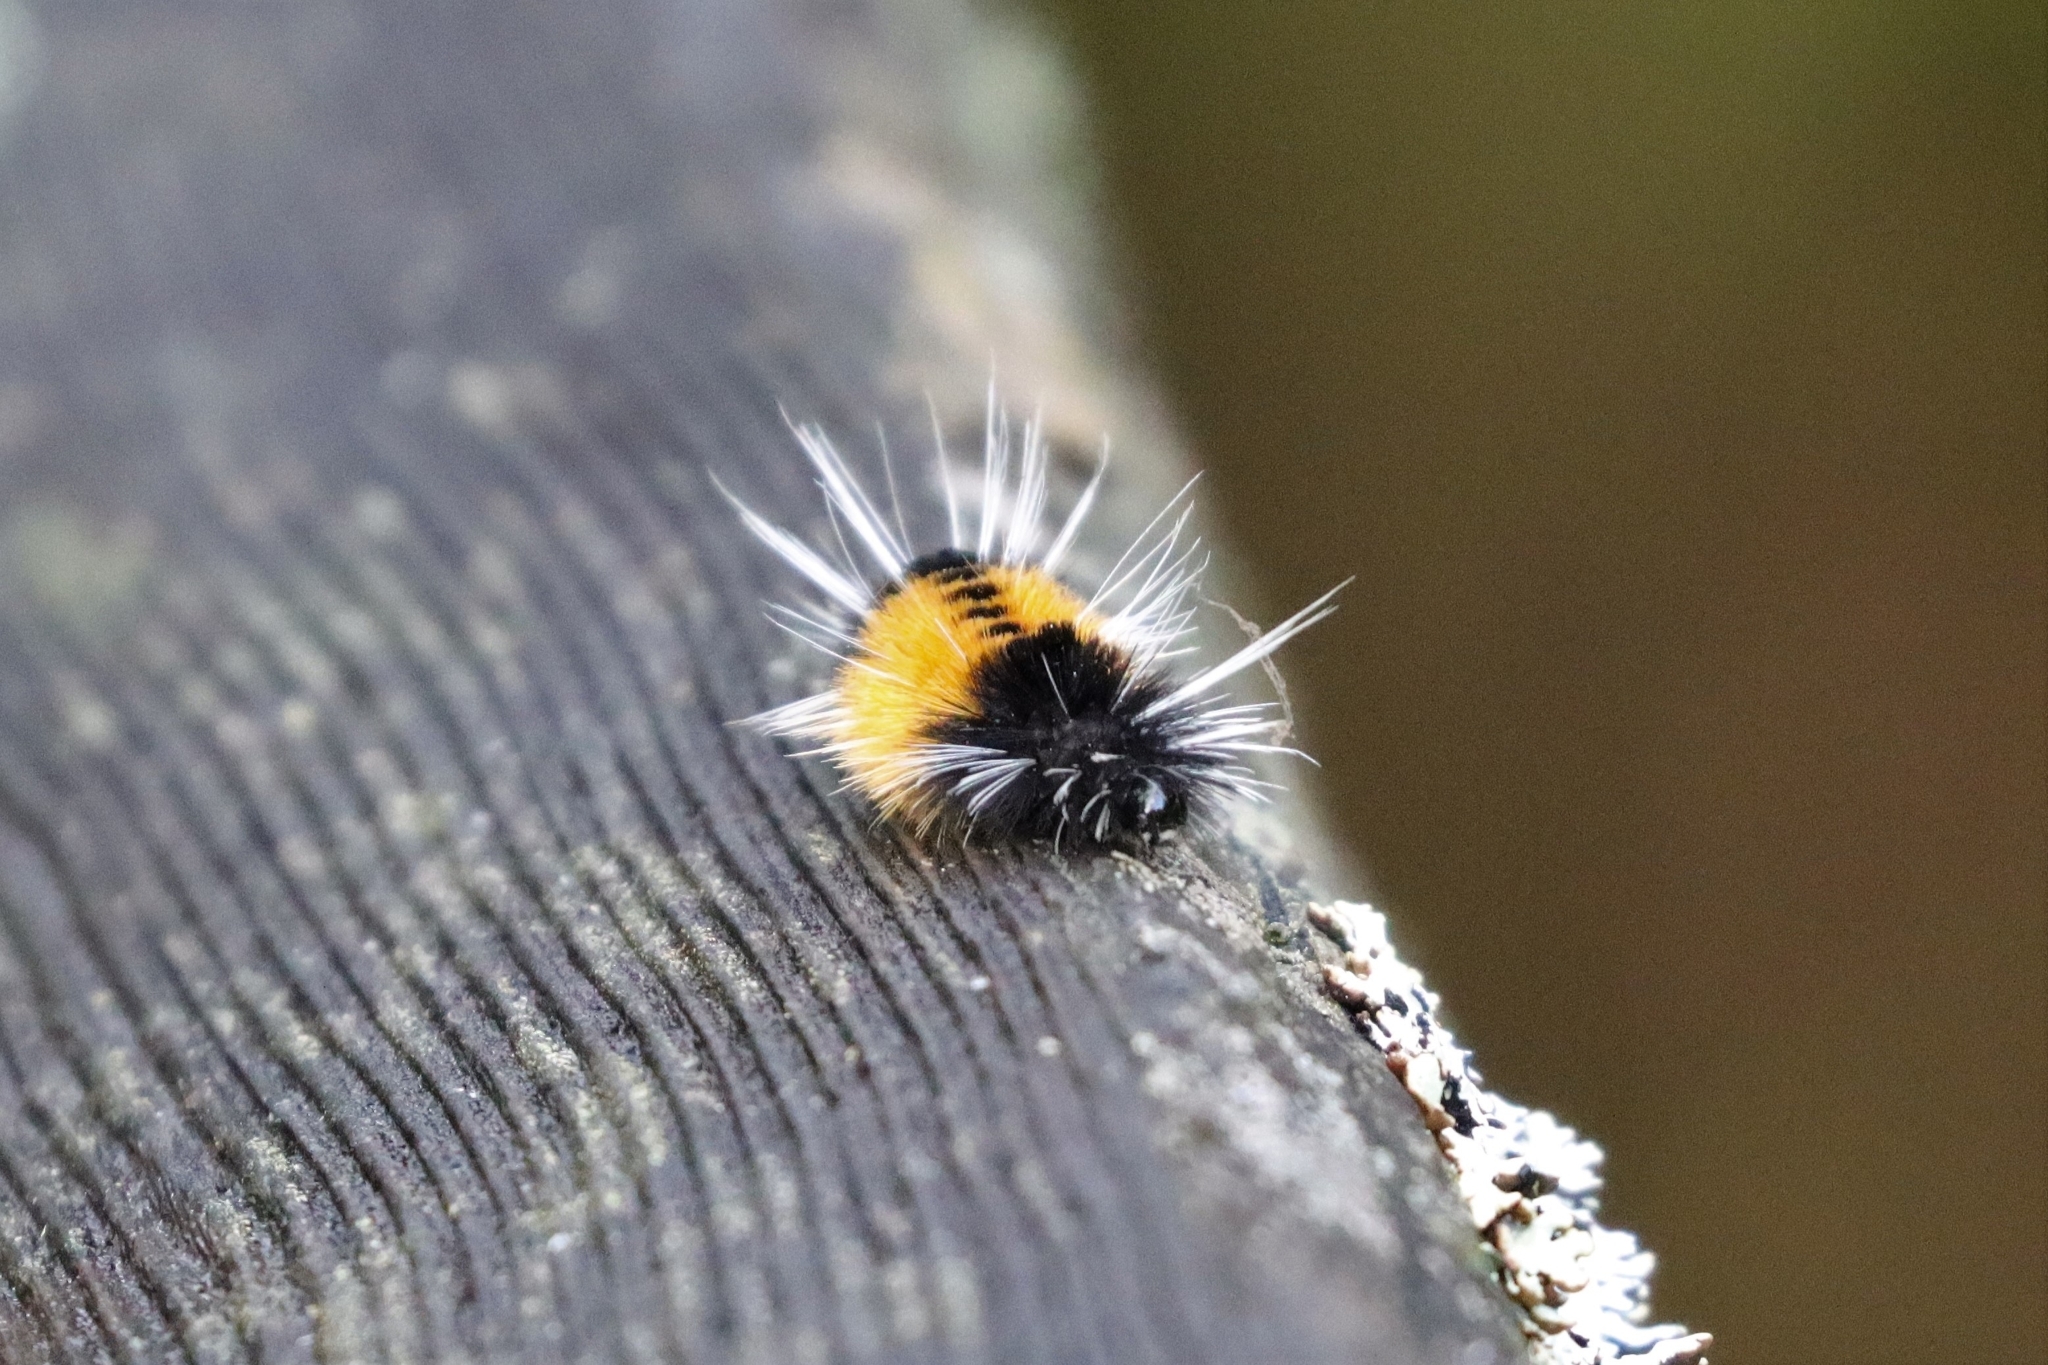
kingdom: Animalia
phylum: Arthropoda
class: Insecta
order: Lepidoptera
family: Erebidae
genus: Lophocampa
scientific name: Lophocampa maculata
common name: Spotted tussock moth
